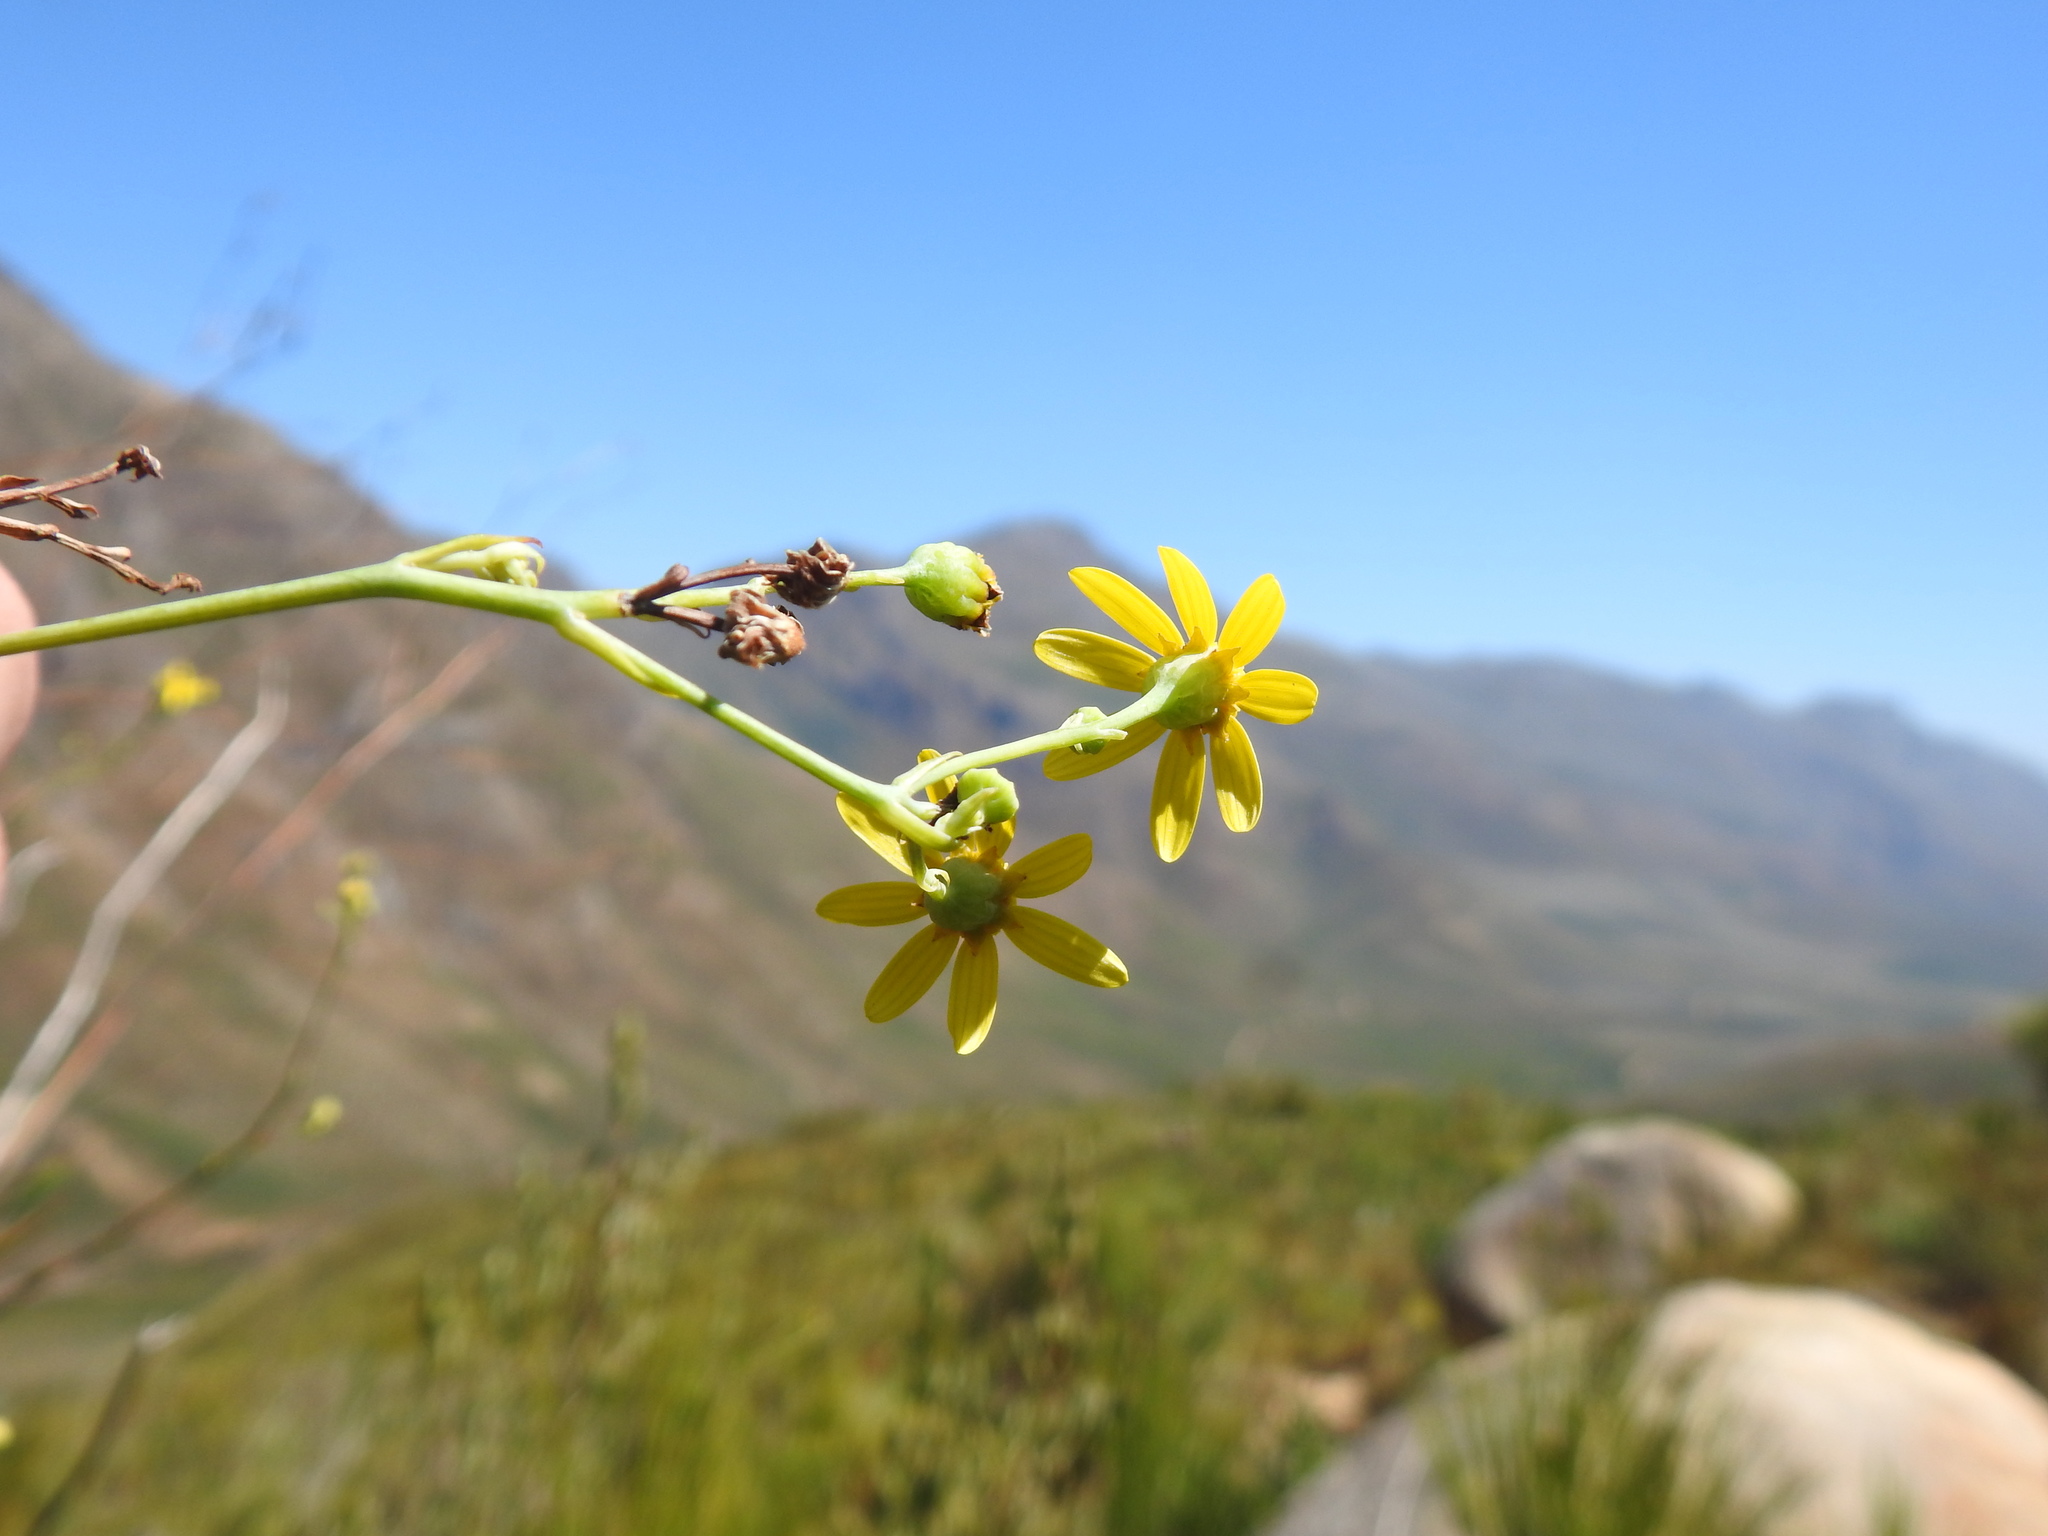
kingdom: Plantae
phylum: Tracheophyta
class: Magnoliopsida
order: Asterales
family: Asteraceae
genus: Othonna
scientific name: Othonna quinquedentata
